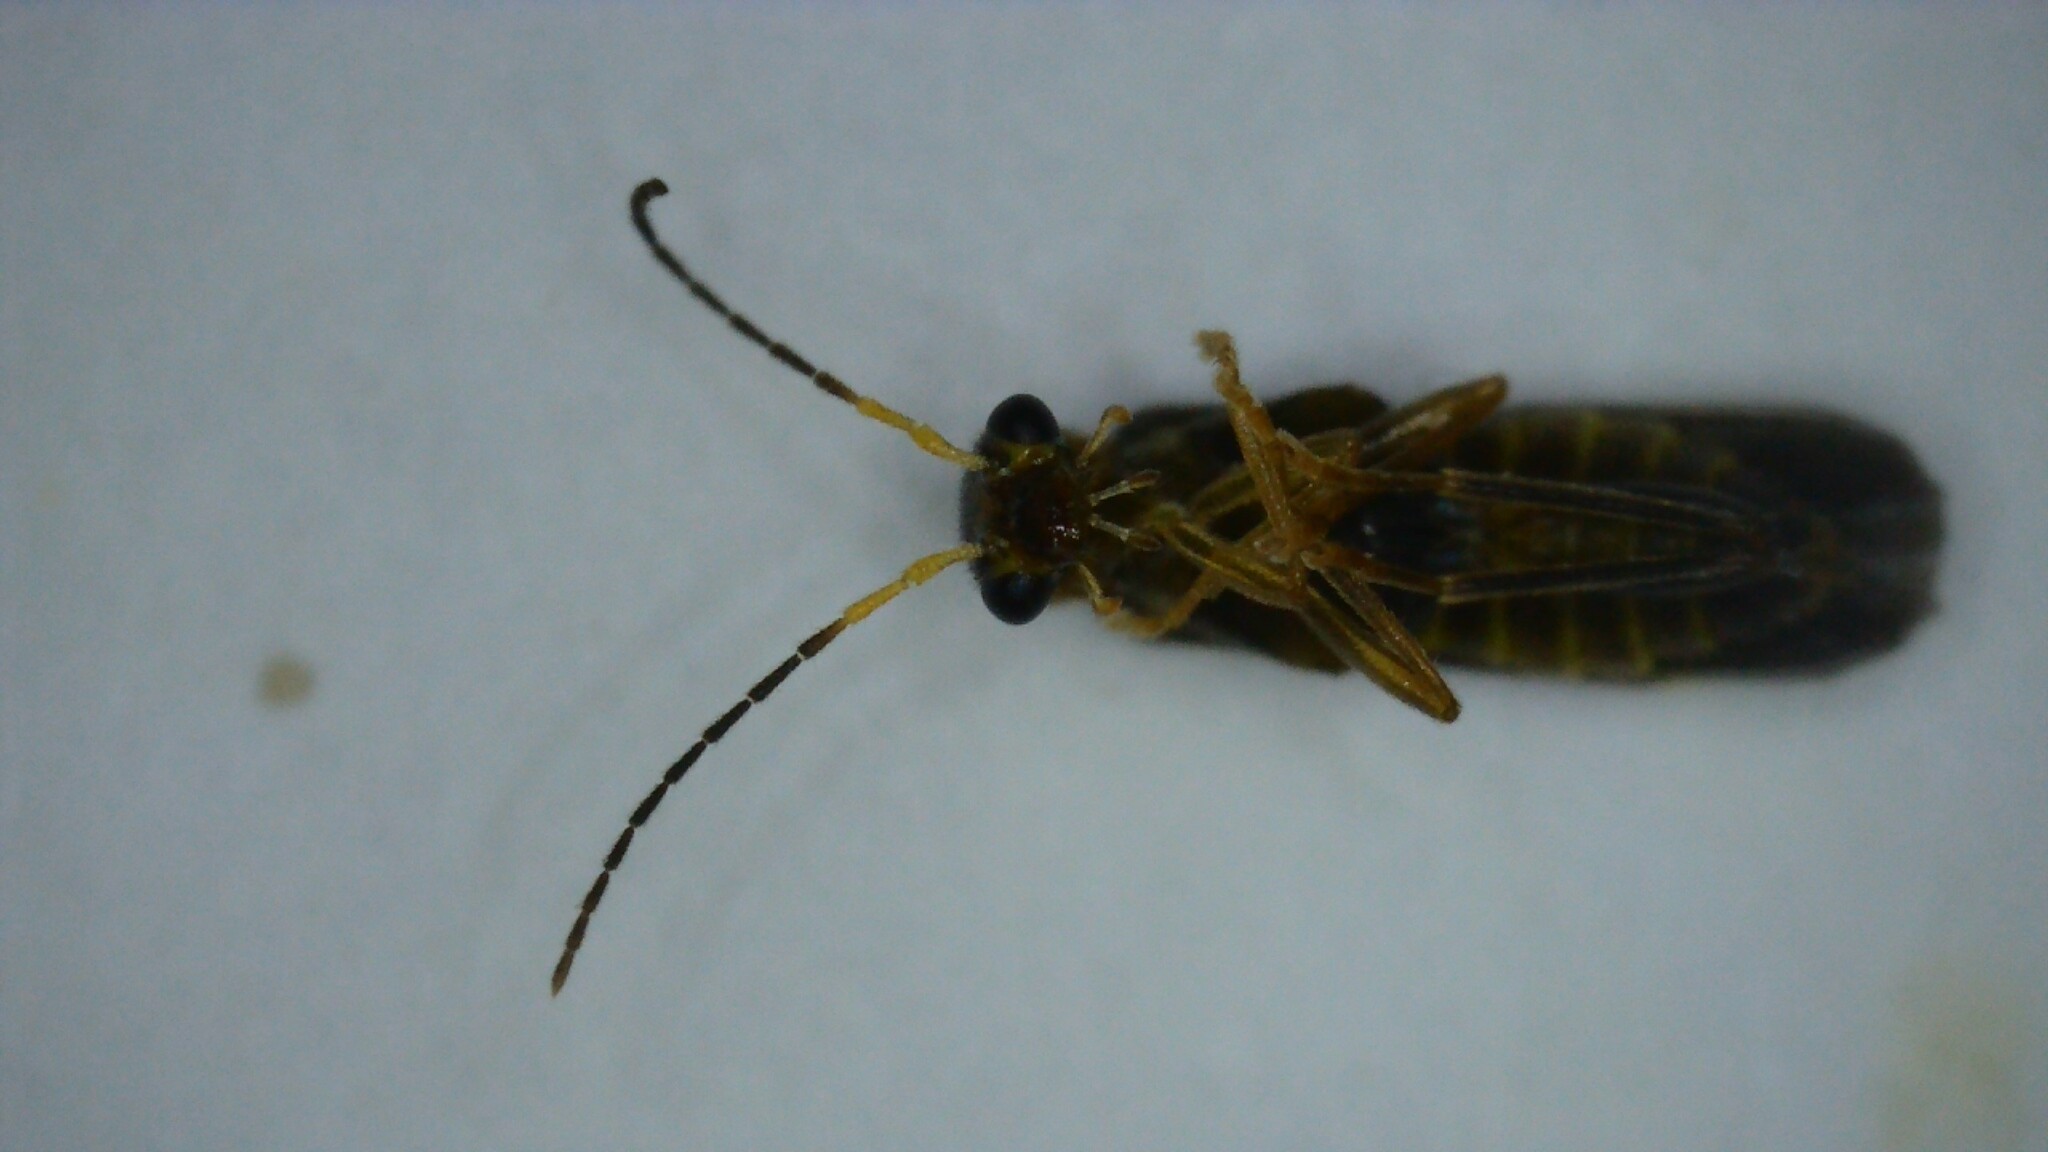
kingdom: Animalia
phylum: Arthropoda
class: Insecta
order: Coleoptera
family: Cantharidae
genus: Malthinus
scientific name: Malthinus balteatus
